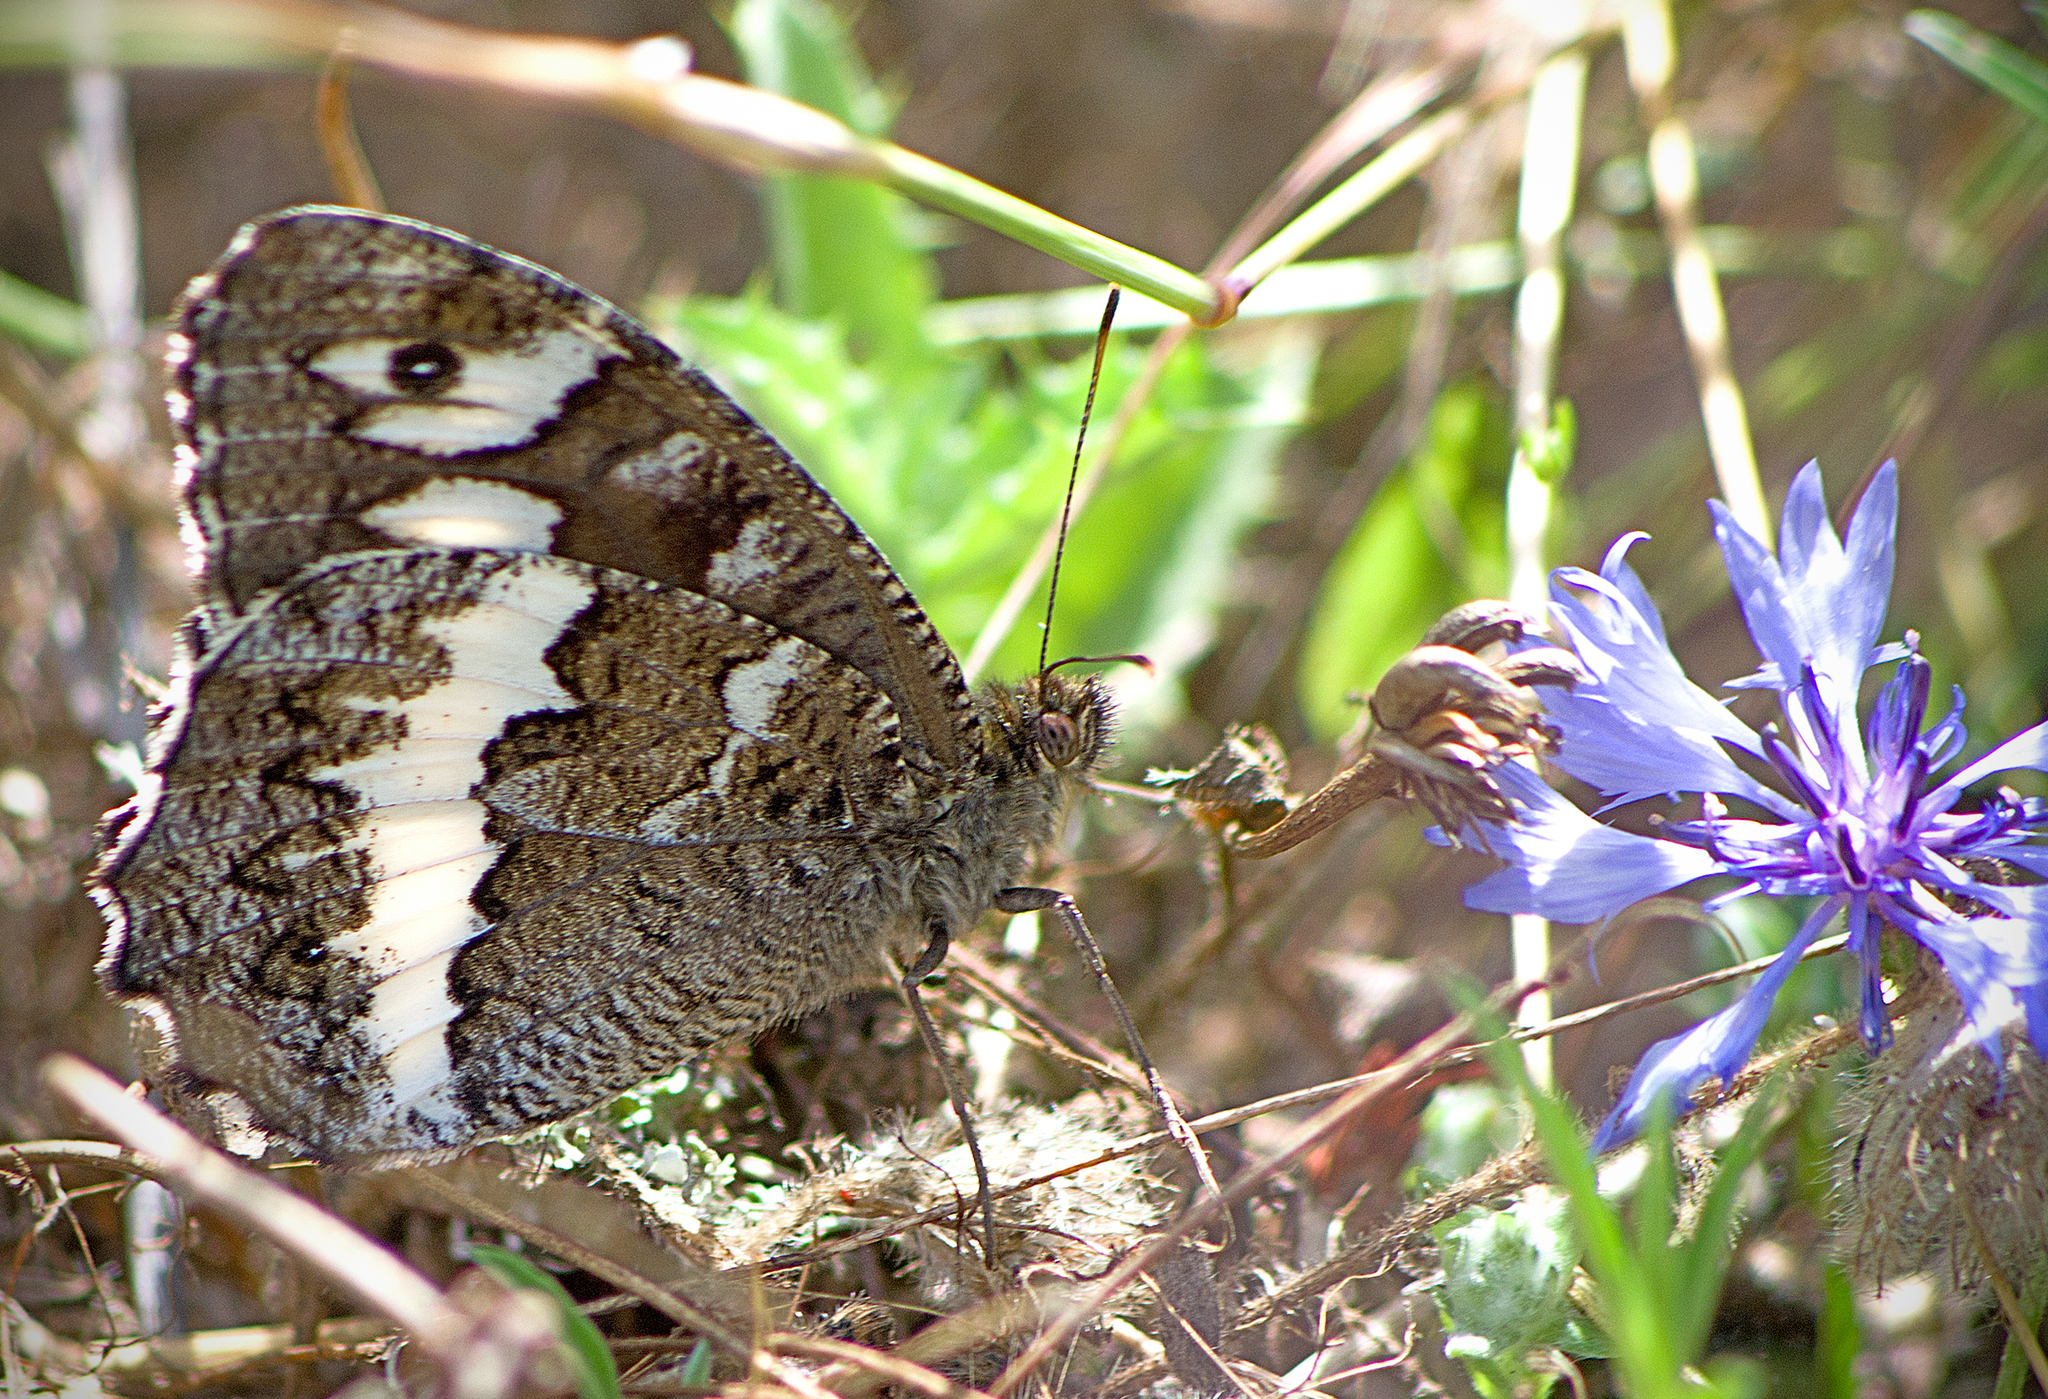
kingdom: Animalia
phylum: Arthropoda
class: Insecta
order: Lepidoptera
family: Lycaenidae
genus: Loweia
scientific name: Loweia tityrus
